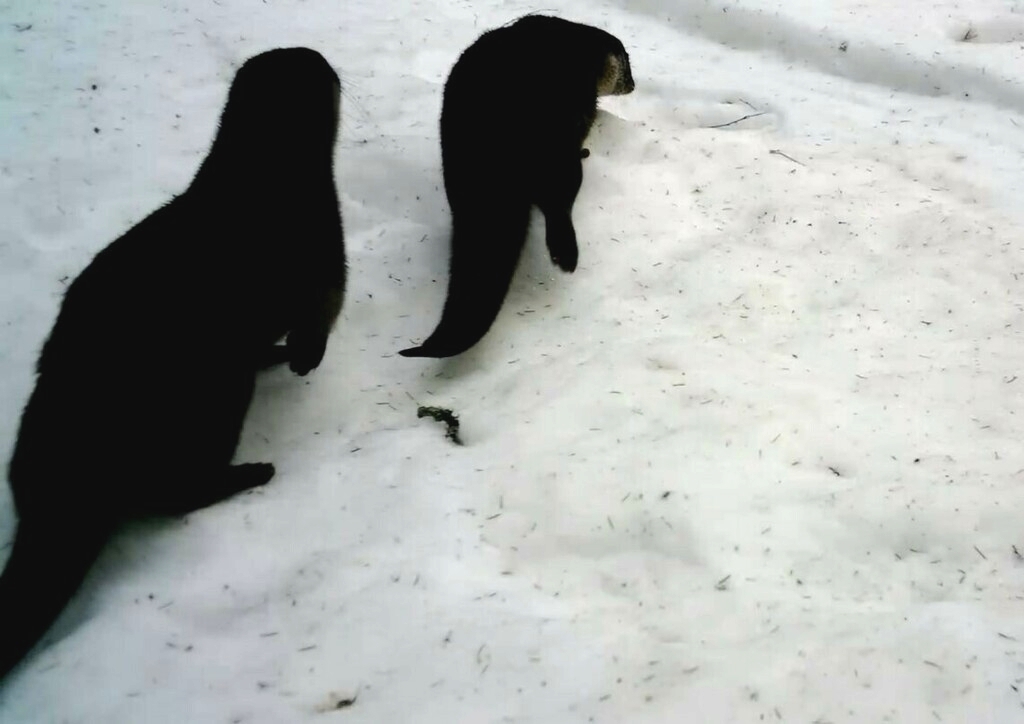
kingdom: Animalia
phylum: Chordata
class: Mammalia
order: Carnivora
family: Mustelidae
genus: Lutra
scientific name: Lutra lutra
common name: European otter
